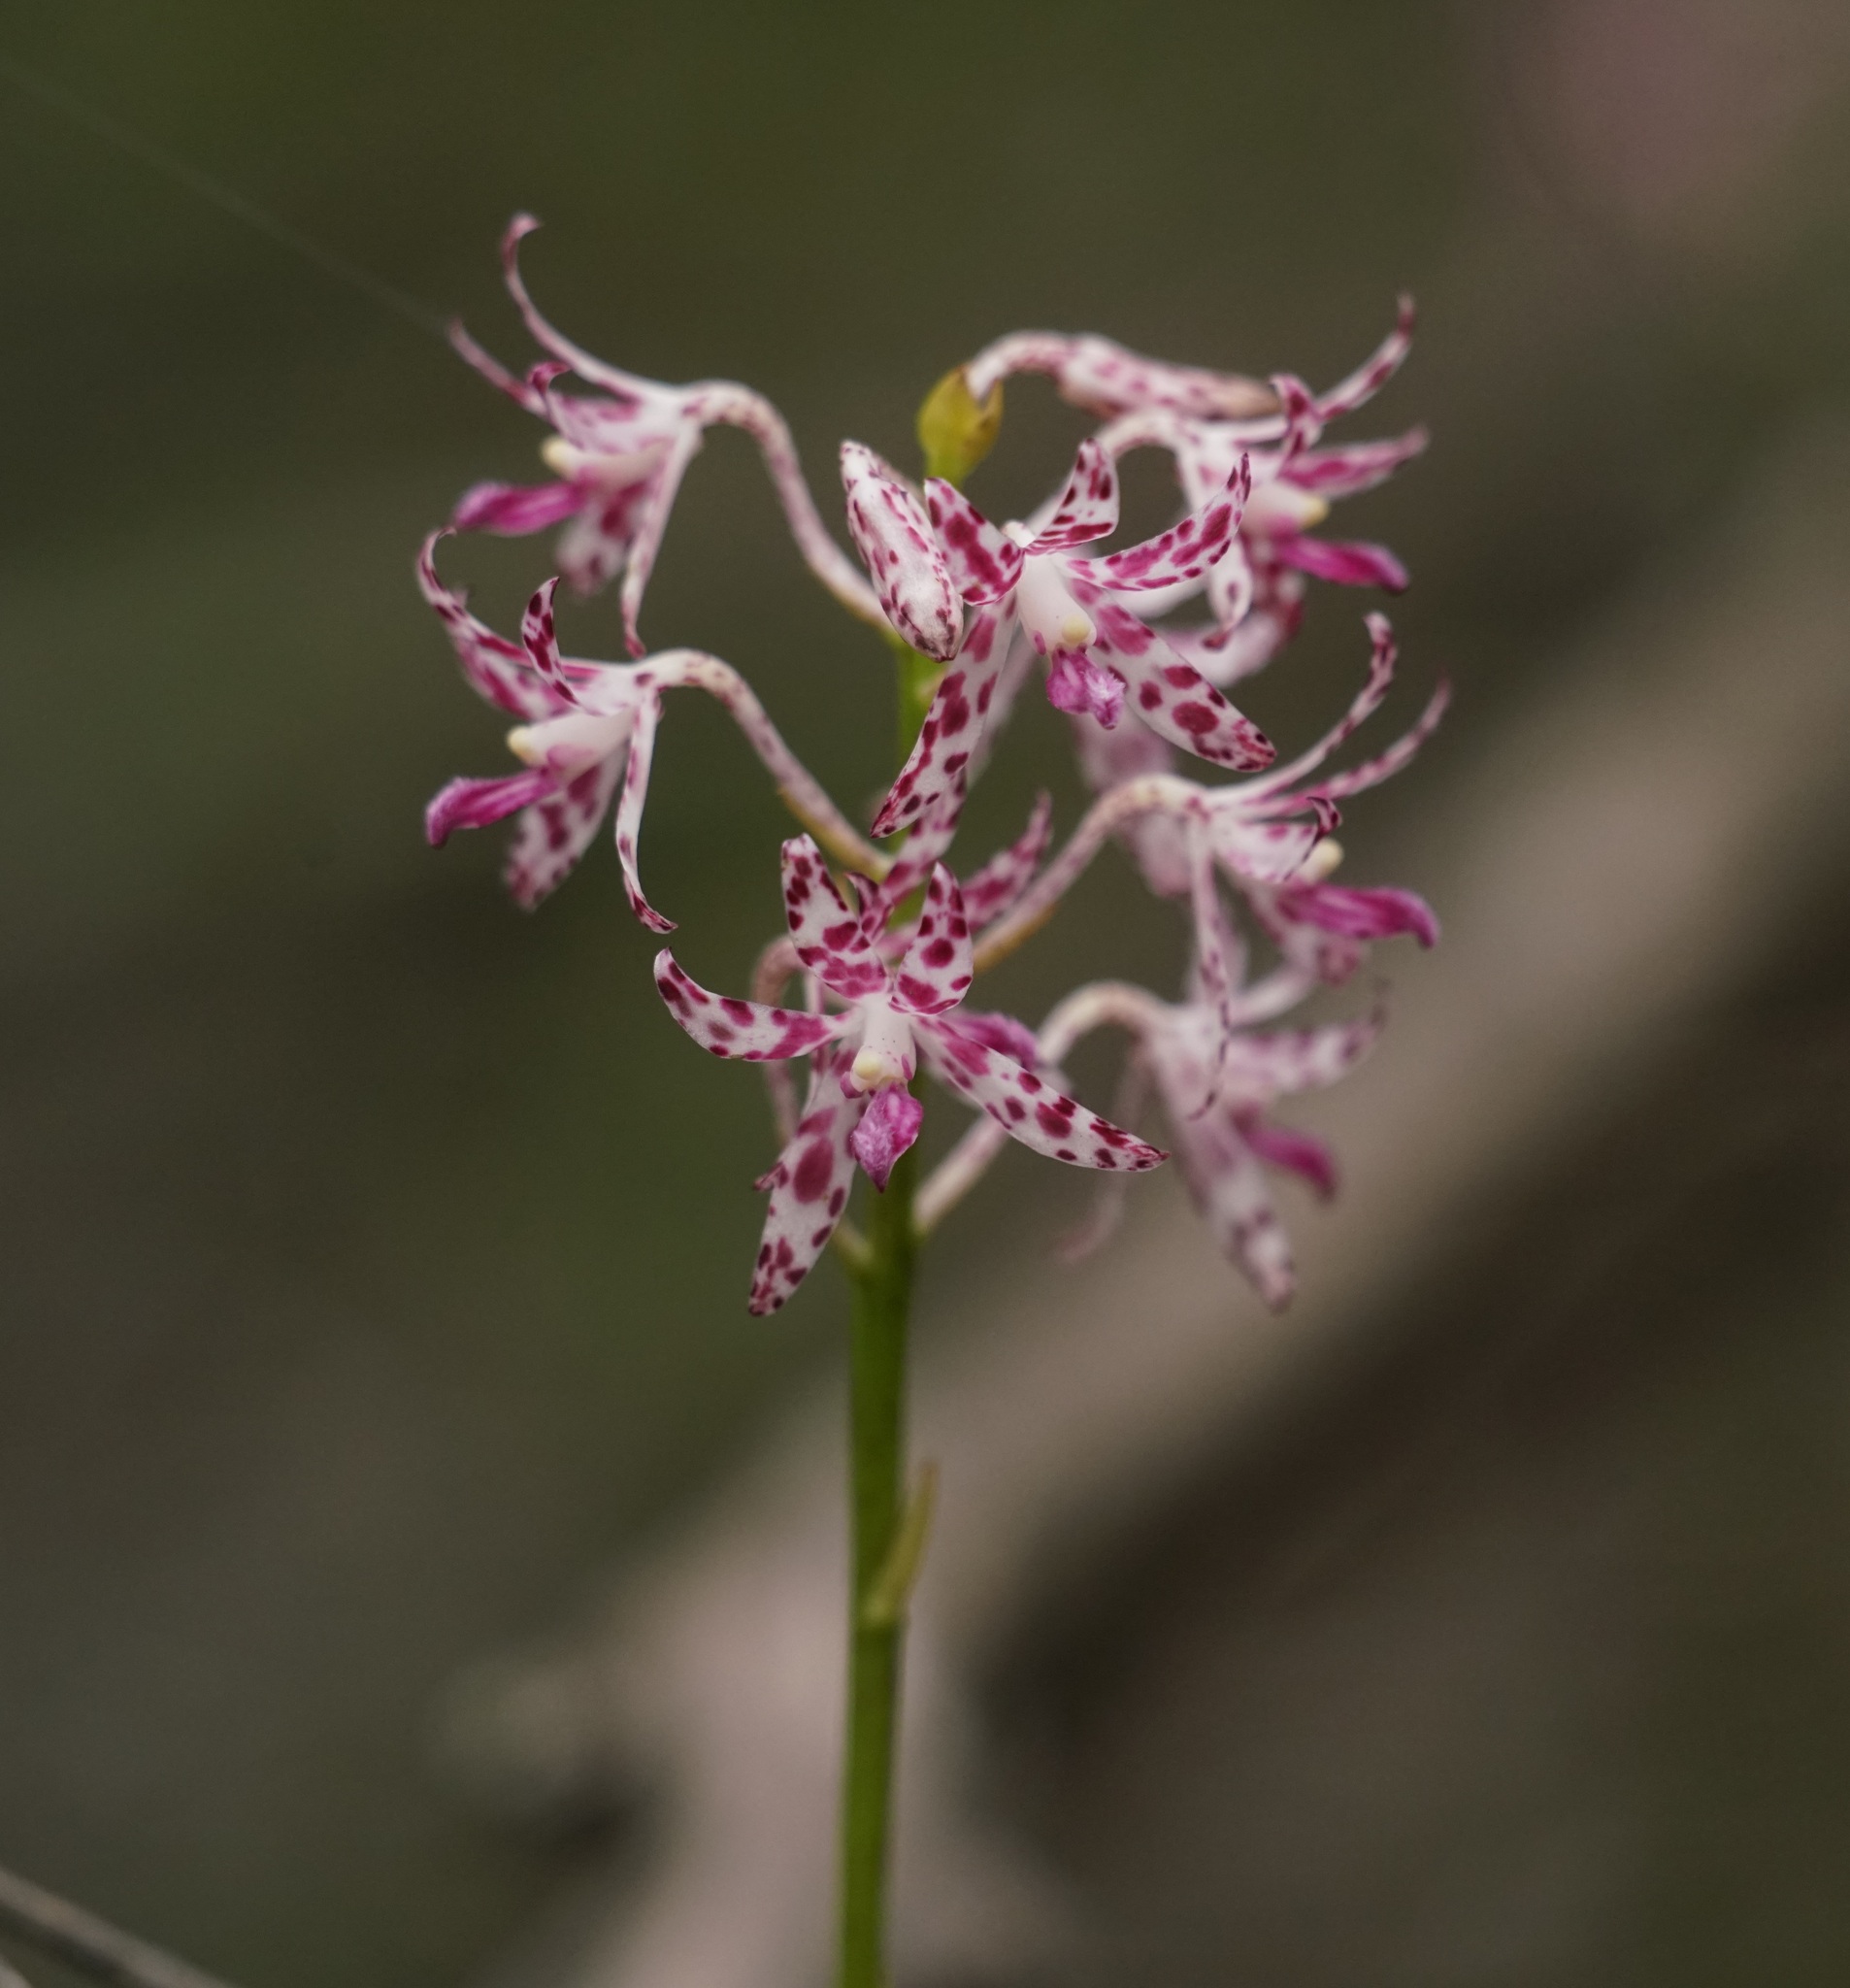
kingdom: Plantae
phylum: Tracheophyta
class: Liliopsida
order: Asparagales
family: Orchidaceae
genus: Dipodium
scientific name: Dipodium variegatum
